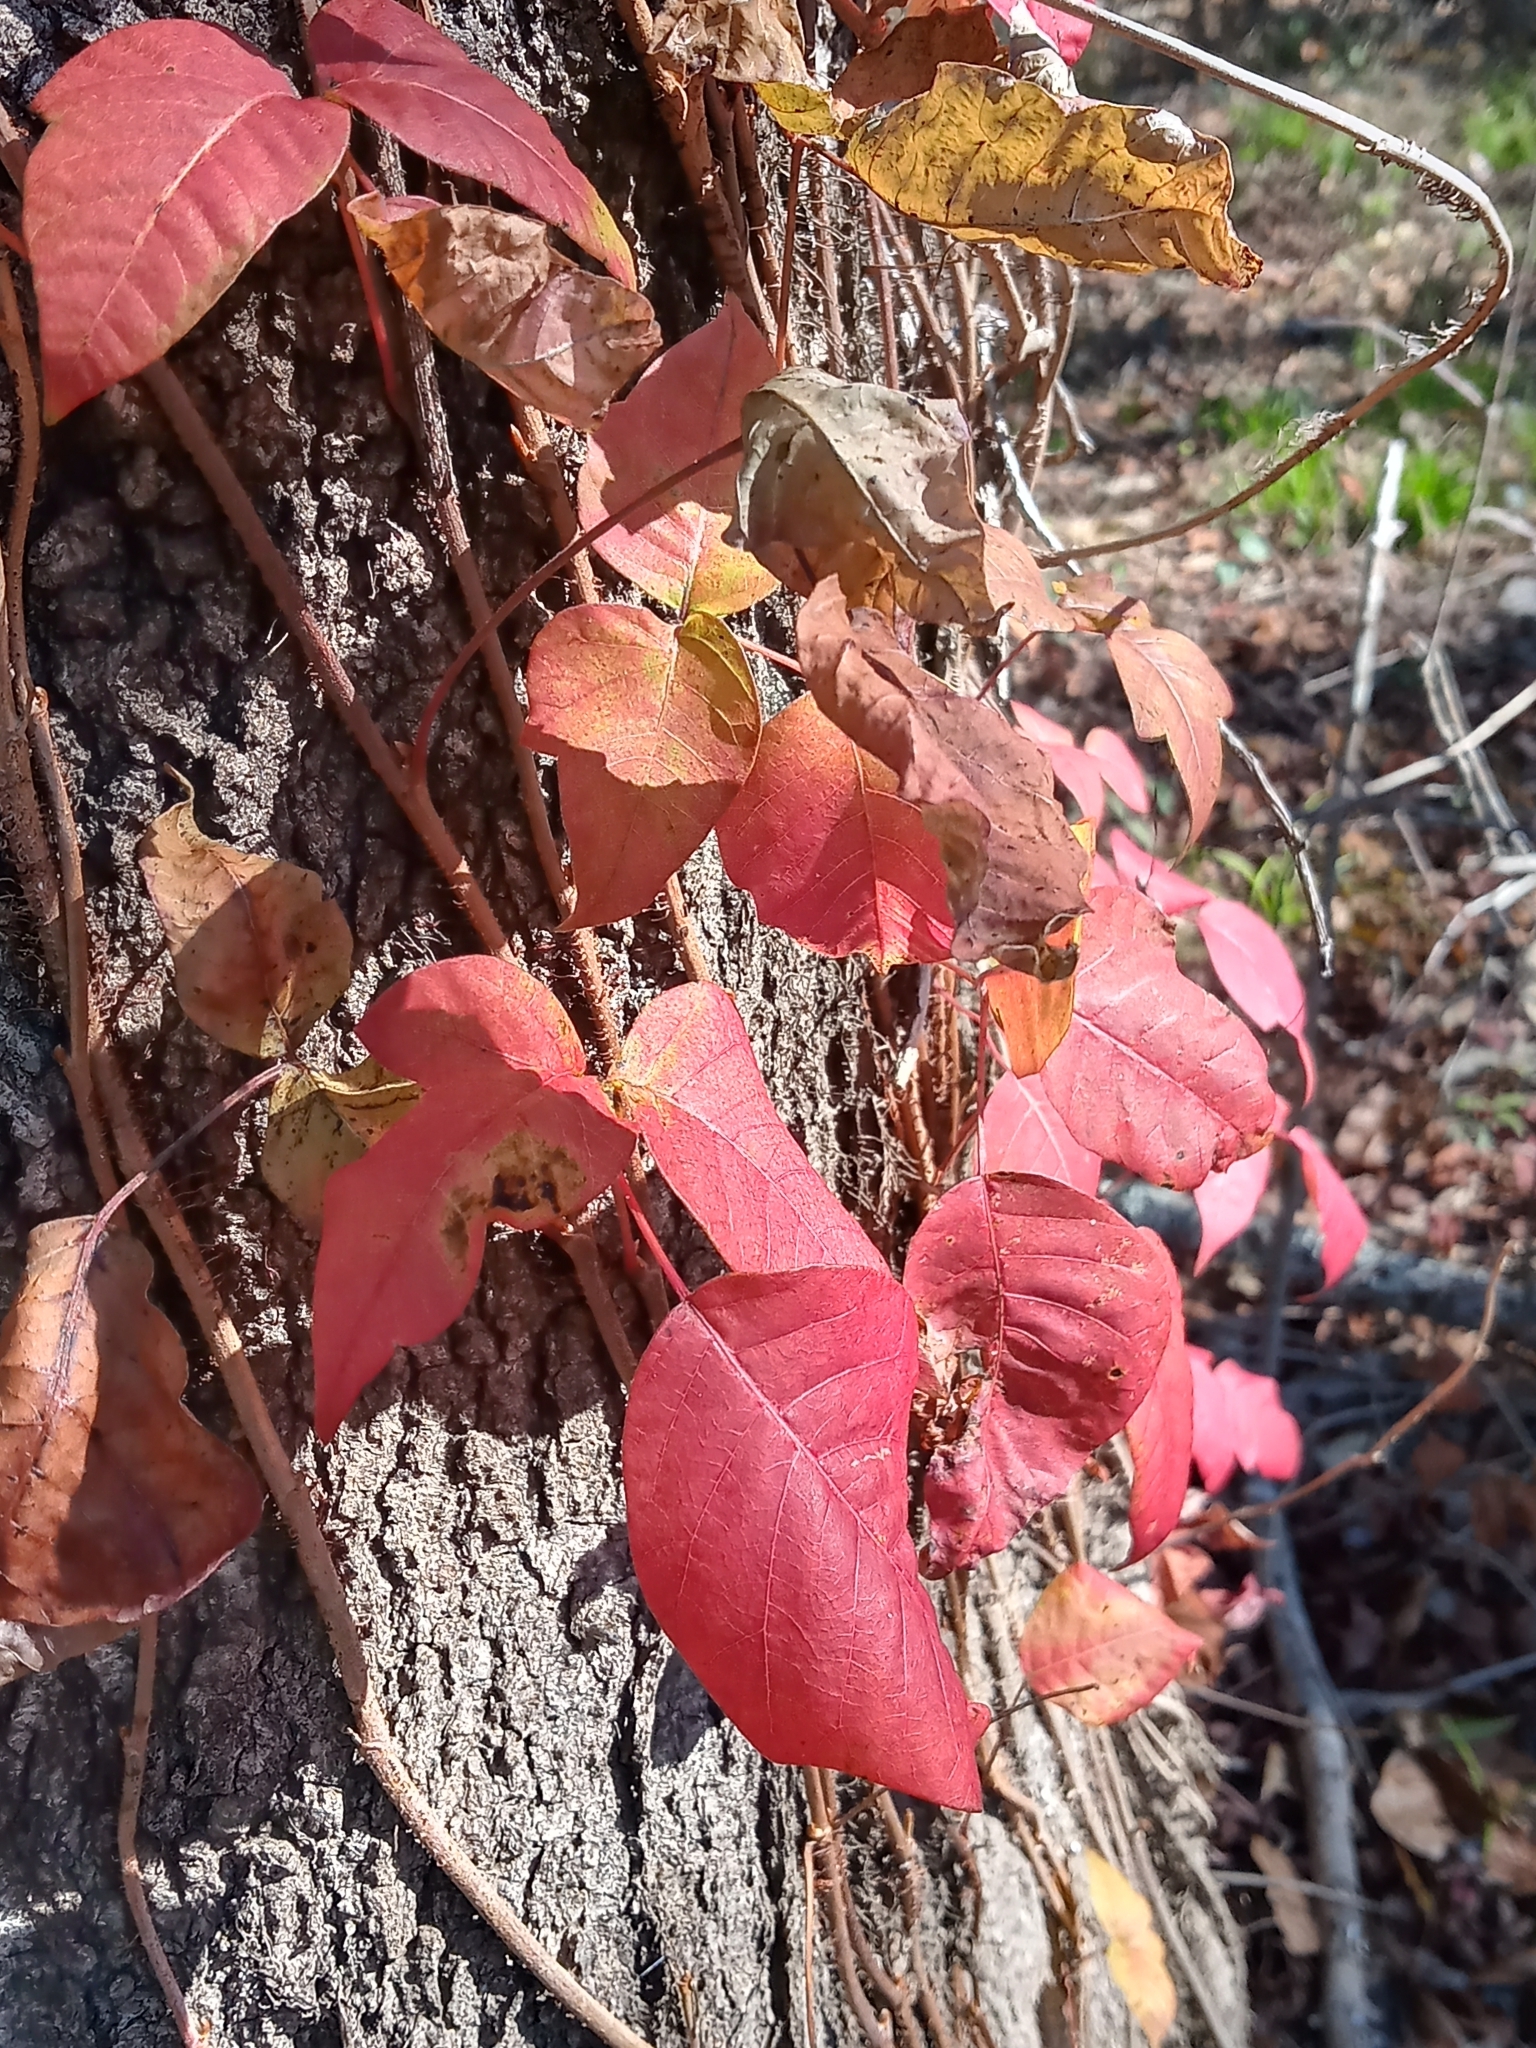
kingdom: Plantae
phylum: Tracheophyta
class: Magnoliopsida
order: Sapindales
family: Anacardiaceae
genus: Toxicodendron
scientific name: Toxicodendron radicans
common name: Poison ivy
